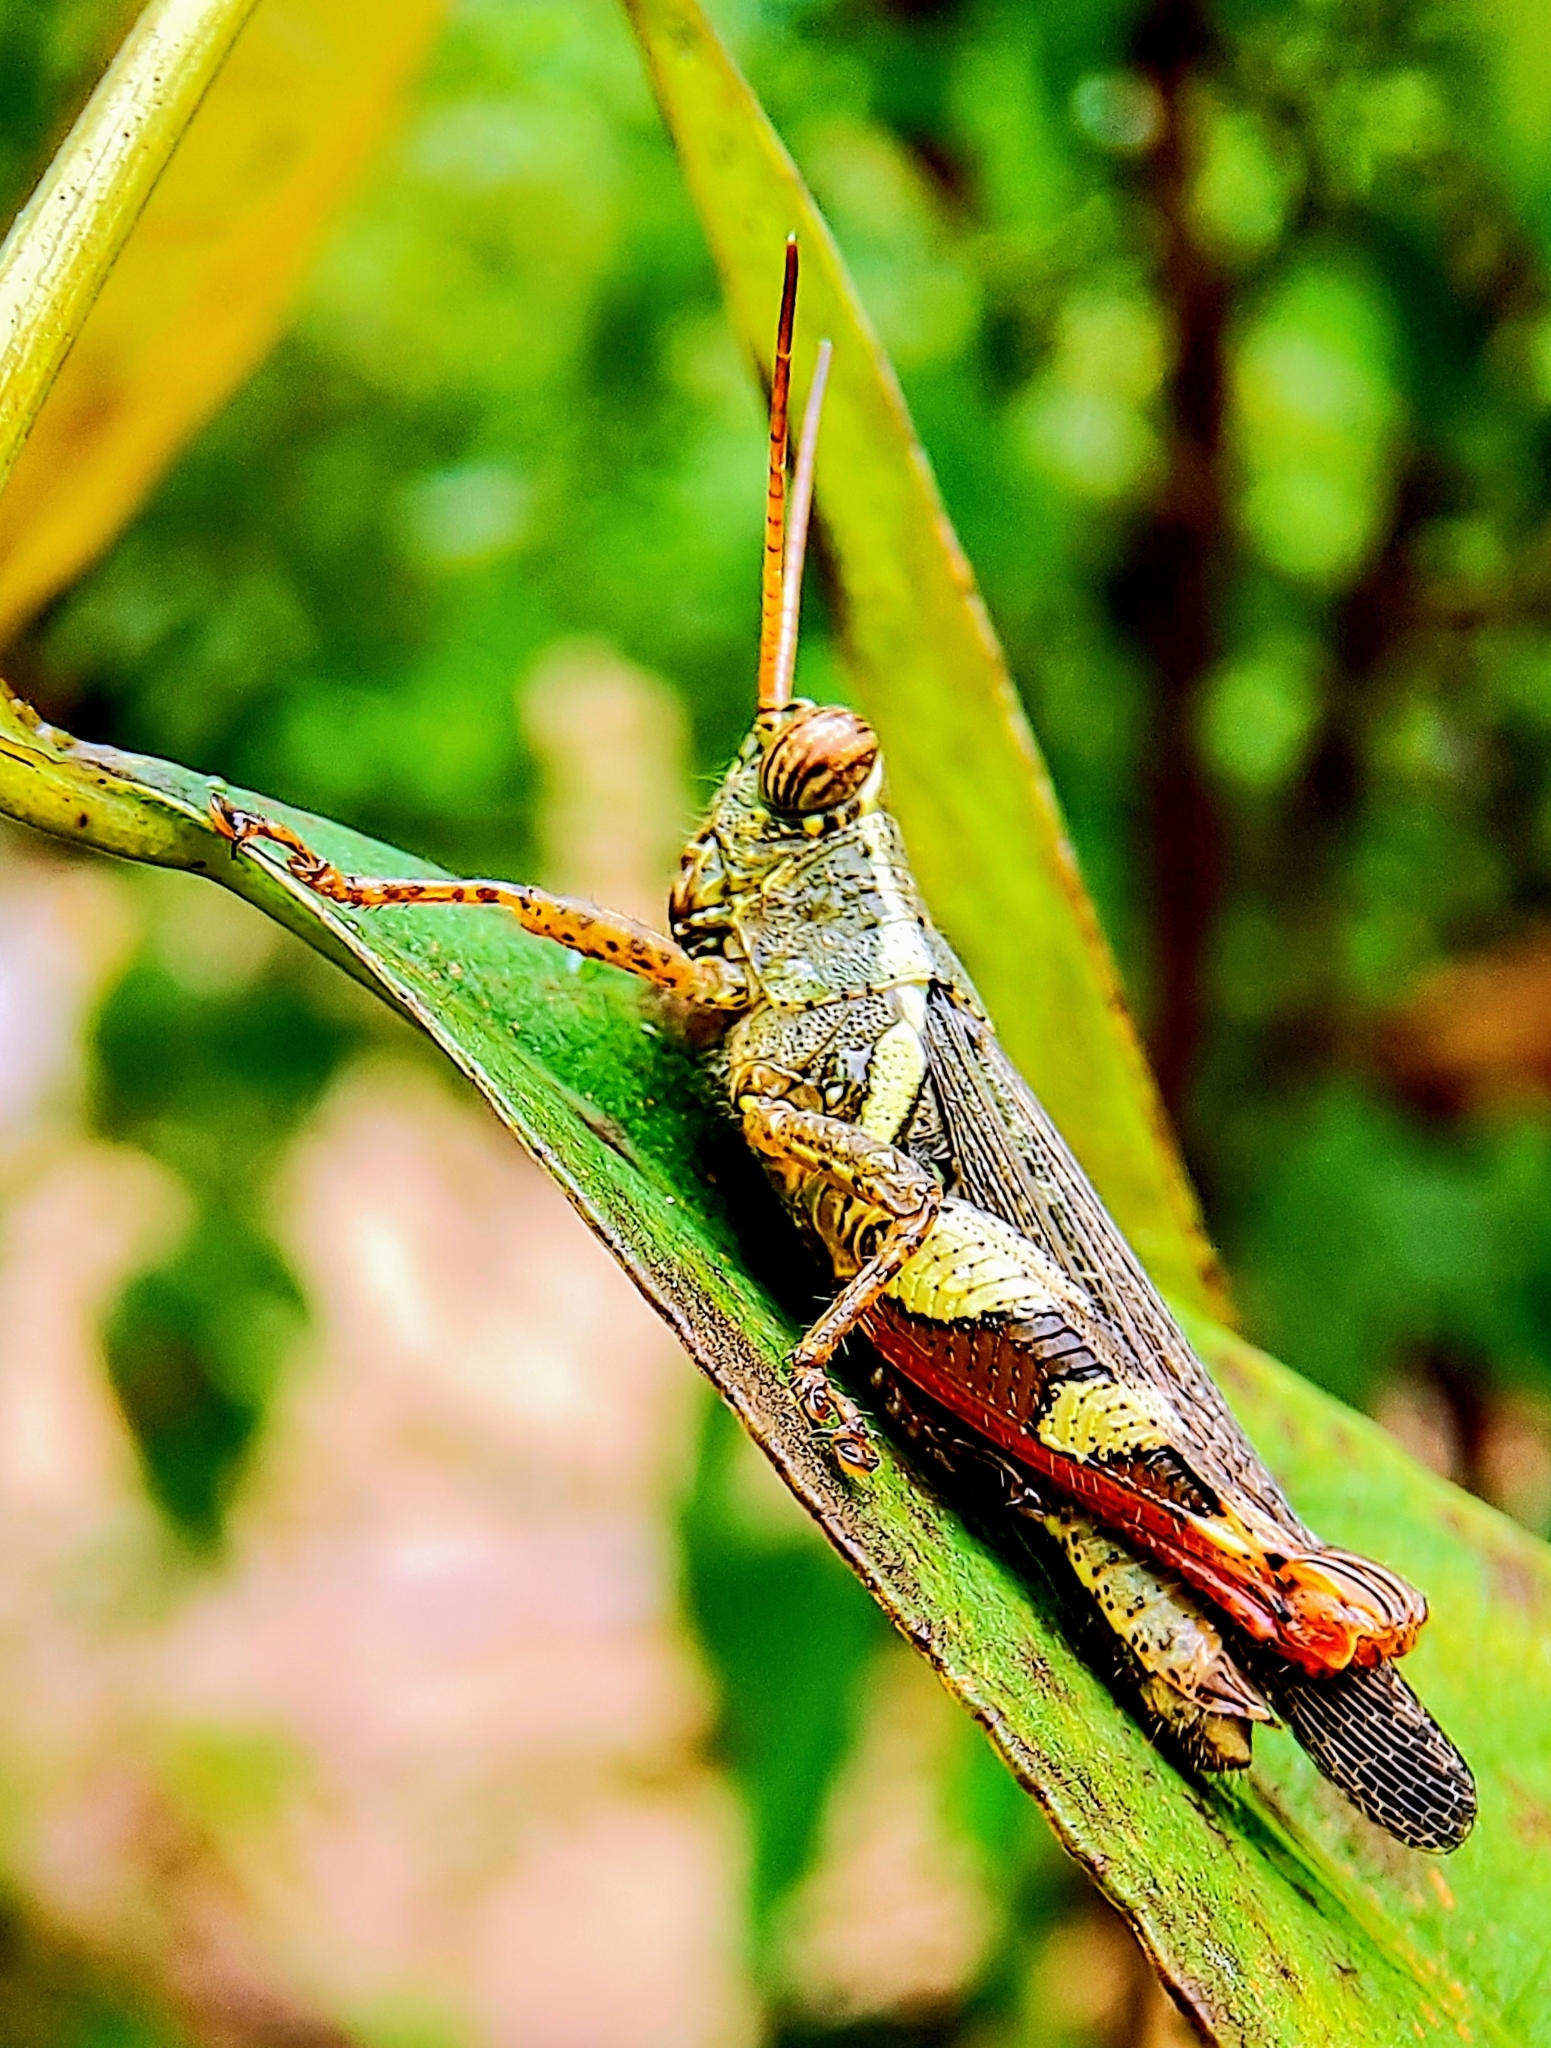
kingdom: Animalia
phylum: Arthropoda
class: Insecta
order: Orthoptera
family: Acrididae
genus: Xenocatantops
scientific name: Xenocatantops humile
